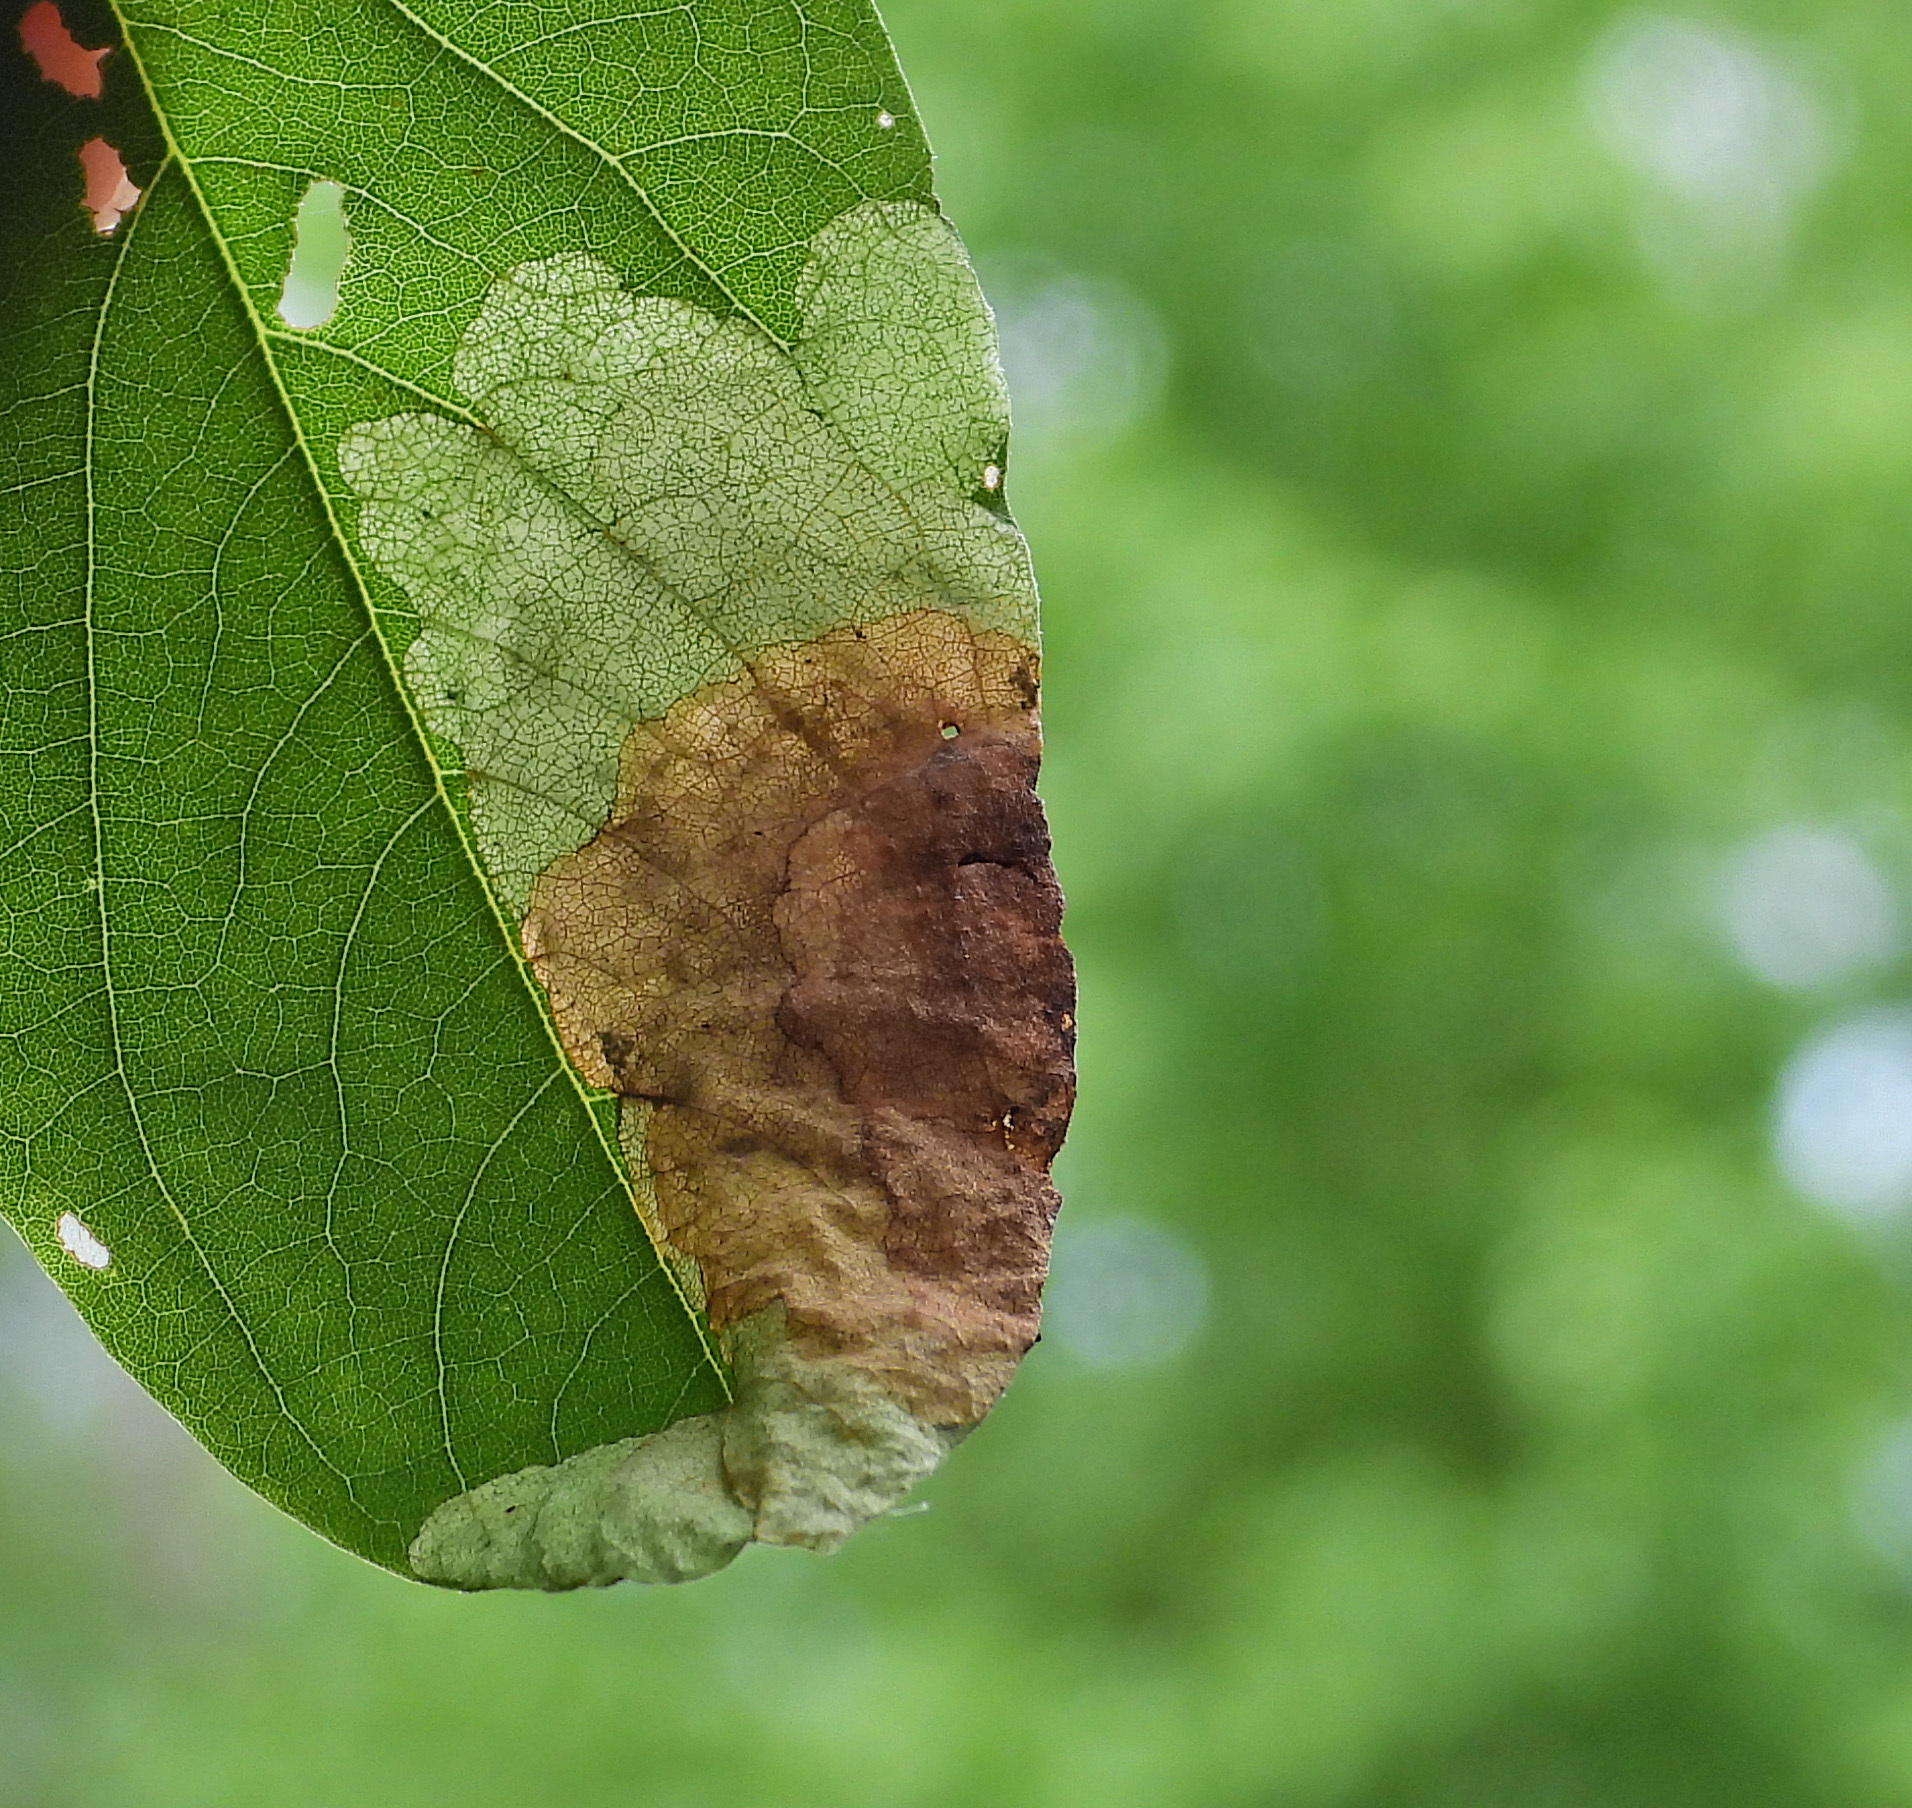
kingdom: Animalia
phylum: Arthropoda
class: Insecta
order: Coleoptera
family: Chrysomelidae
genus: Odontota
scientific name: Odontota dorsalis
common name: Locust leaf-miner beetle
